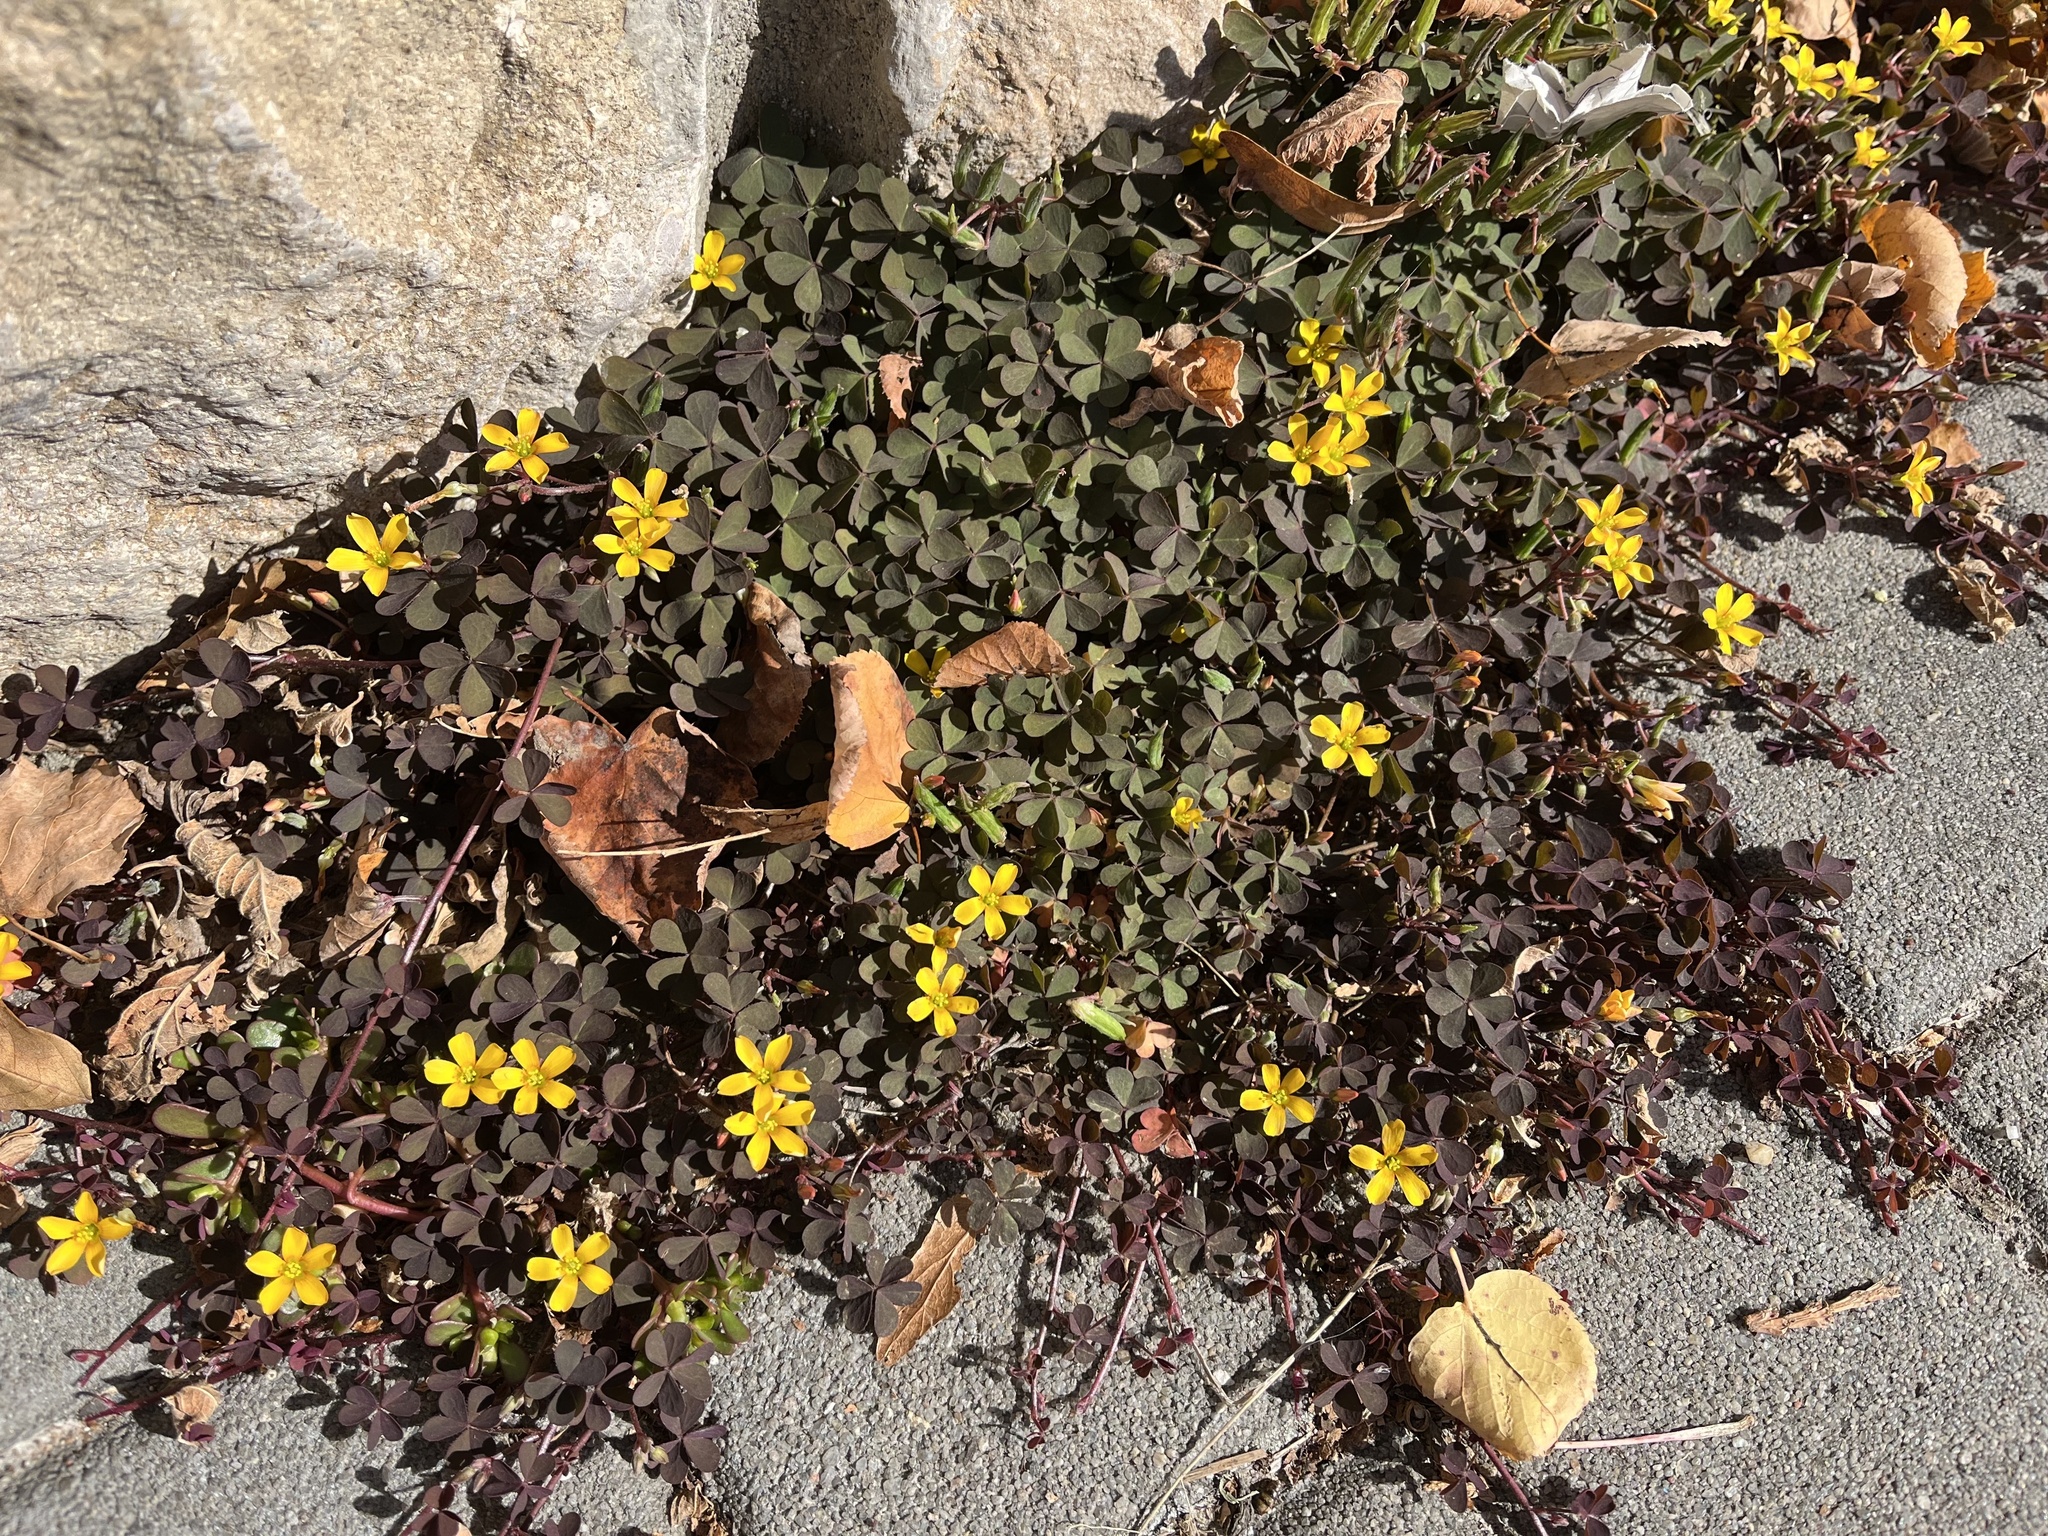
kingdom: Plantae
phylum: Tracheophyta
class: Magnoliopsida
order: Oxalidales
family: Oxalidaceae
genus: Oxalis
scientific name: Oxalis corniculata
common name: Procumbent yellow-sorrel
